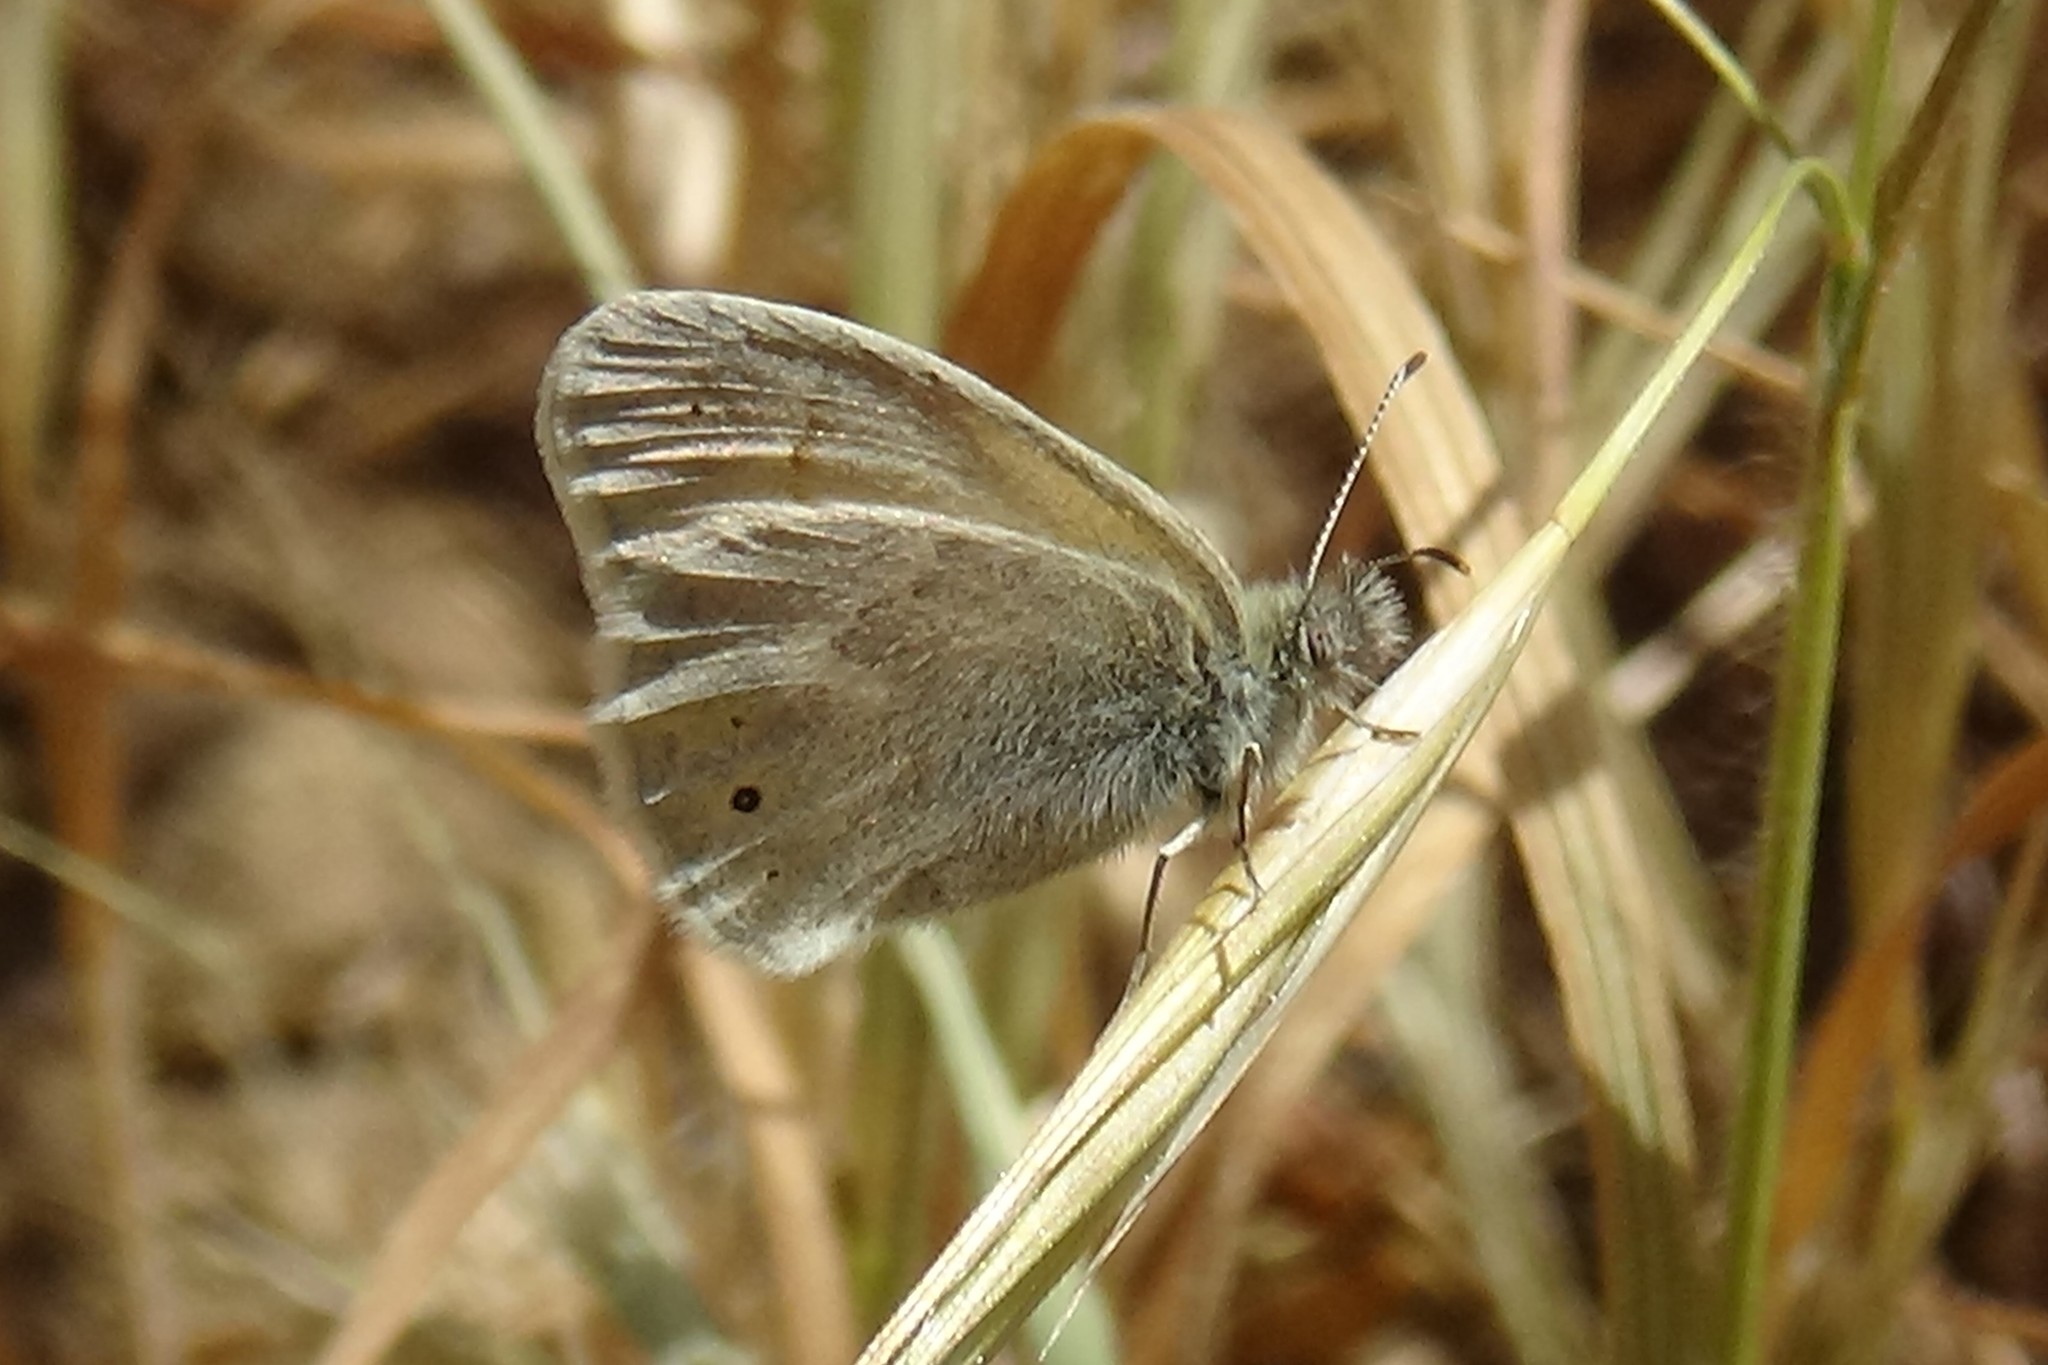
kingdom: Animalia
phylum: Arthropoda
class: Insecta
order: Lepidoptera
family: Nymphalidae
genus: Coenonympha
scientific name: Coenonympha california
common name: Common ringlet
